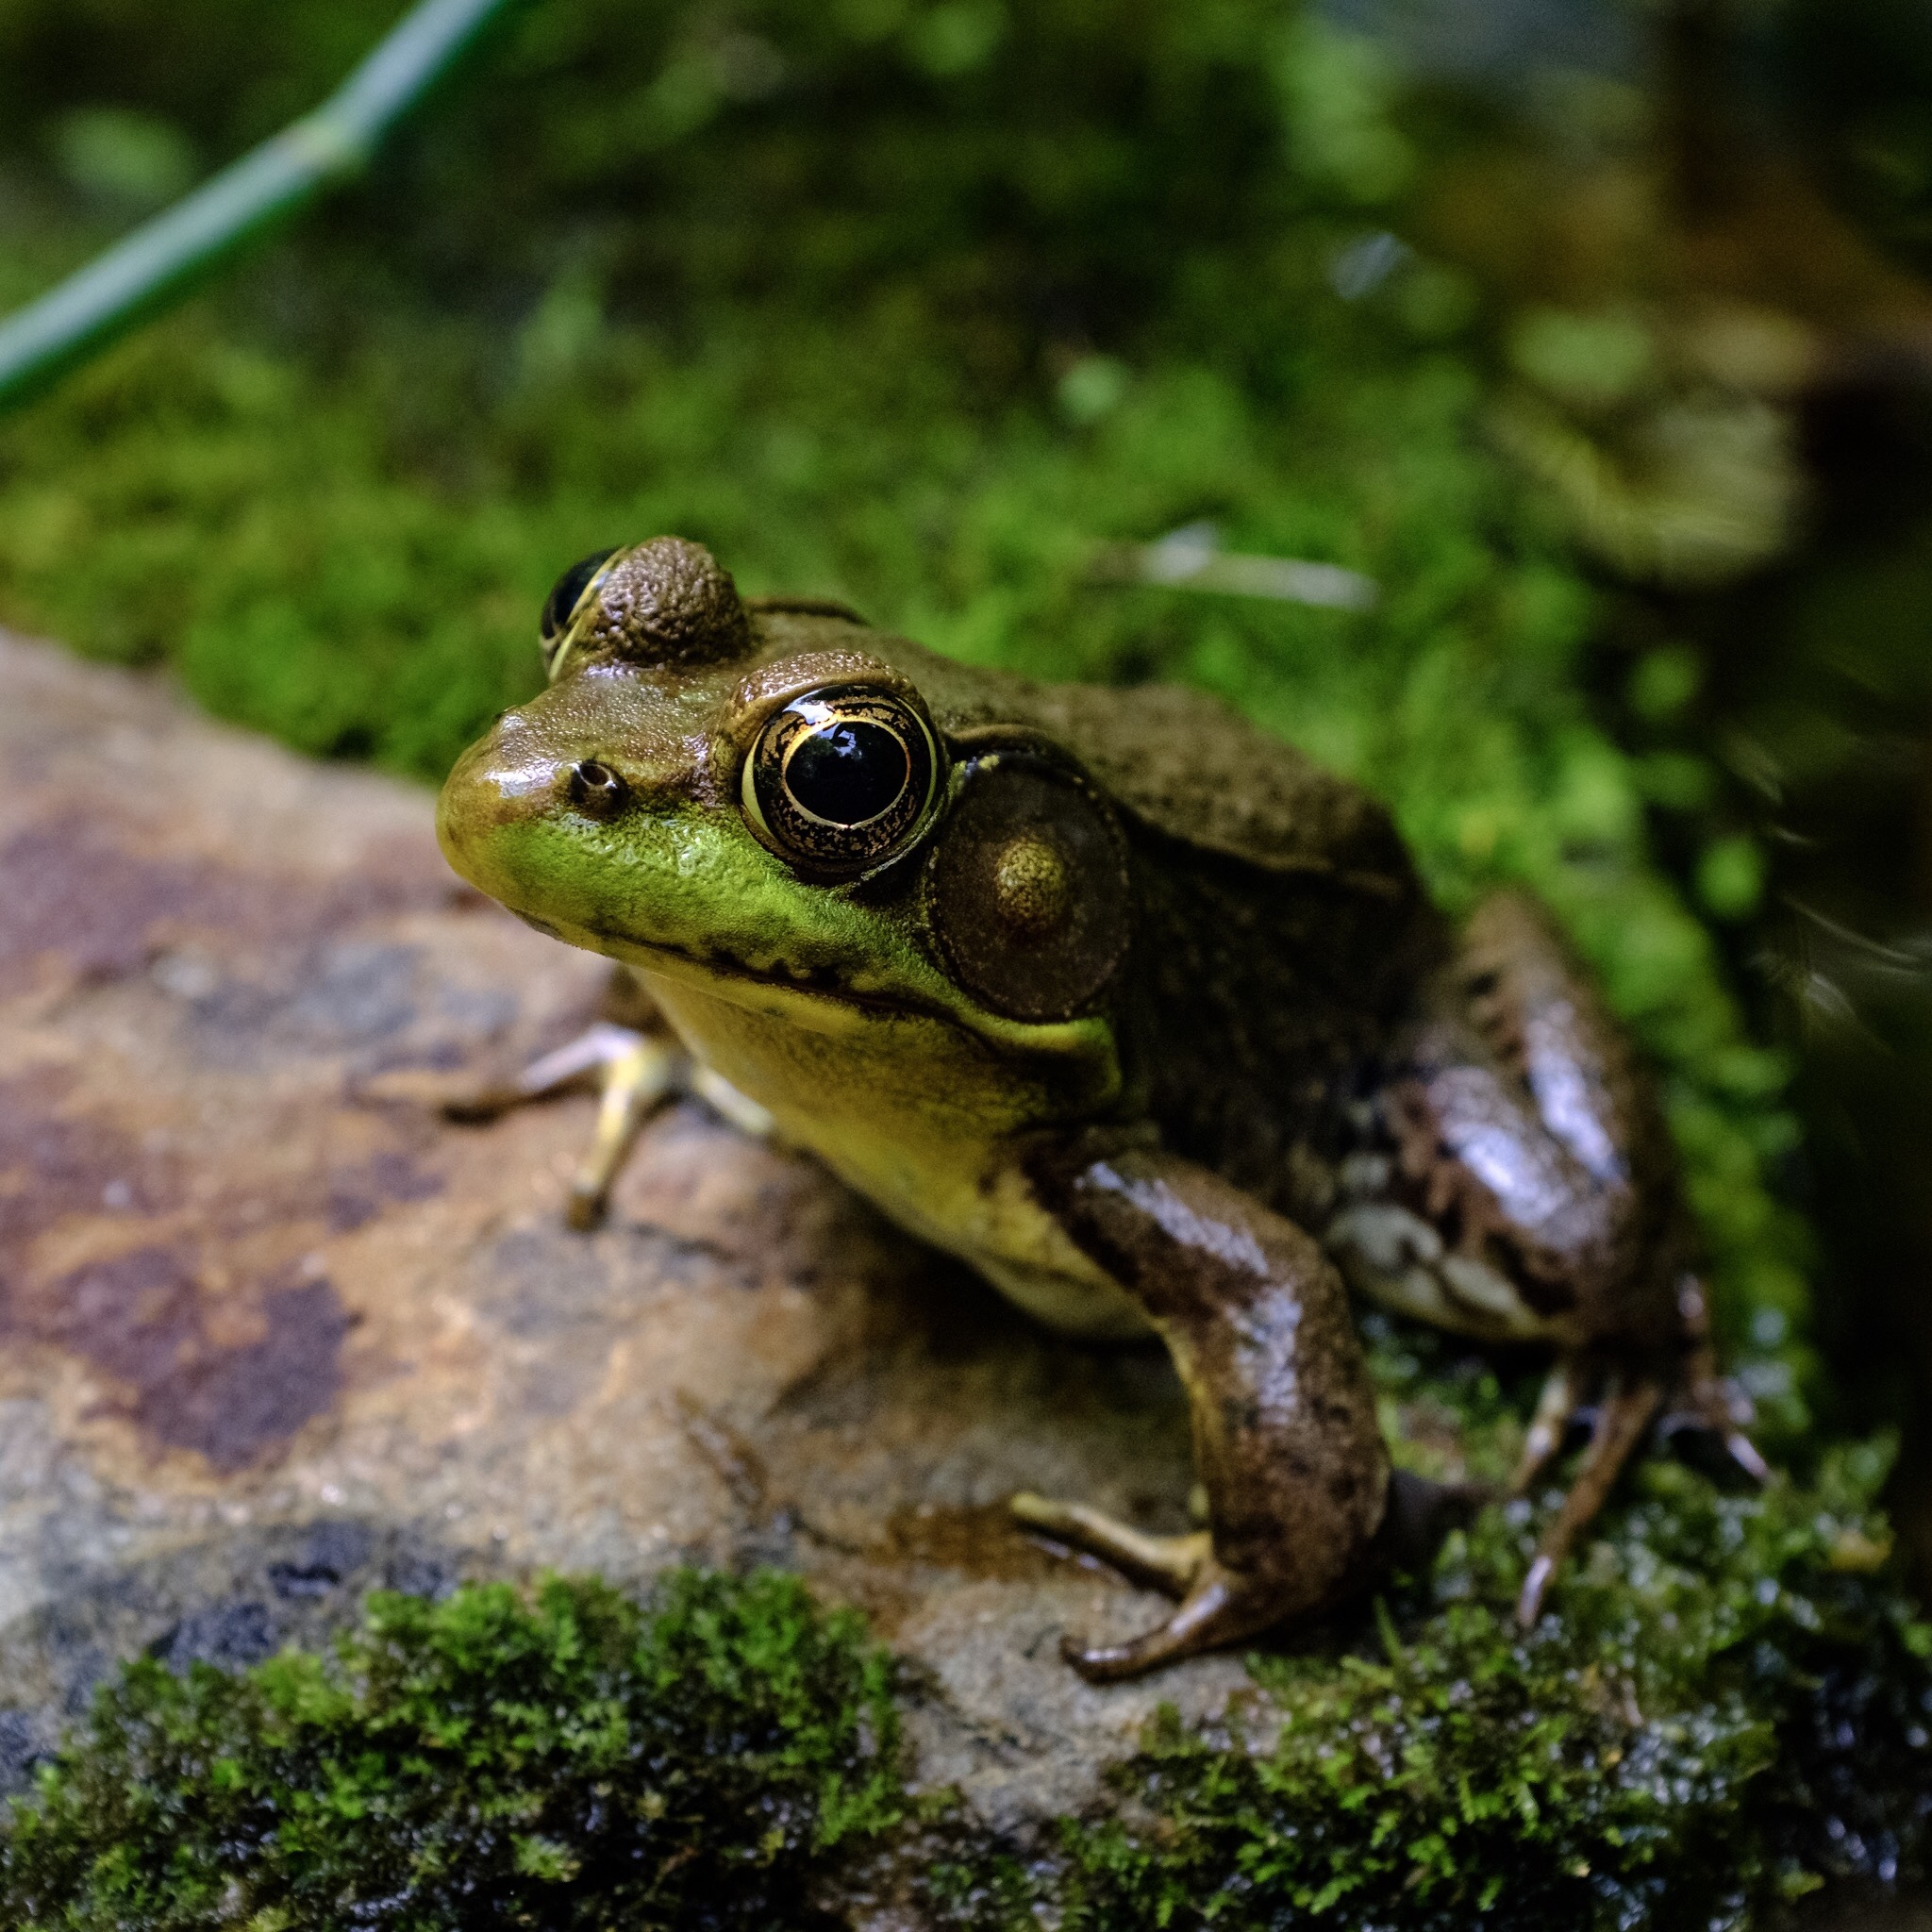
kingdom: Animalia
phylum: Chordata
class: Amphibia
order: Anura
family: Ranidae
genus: Lithobates
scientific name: Lithobates clamitans
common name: Green frog
